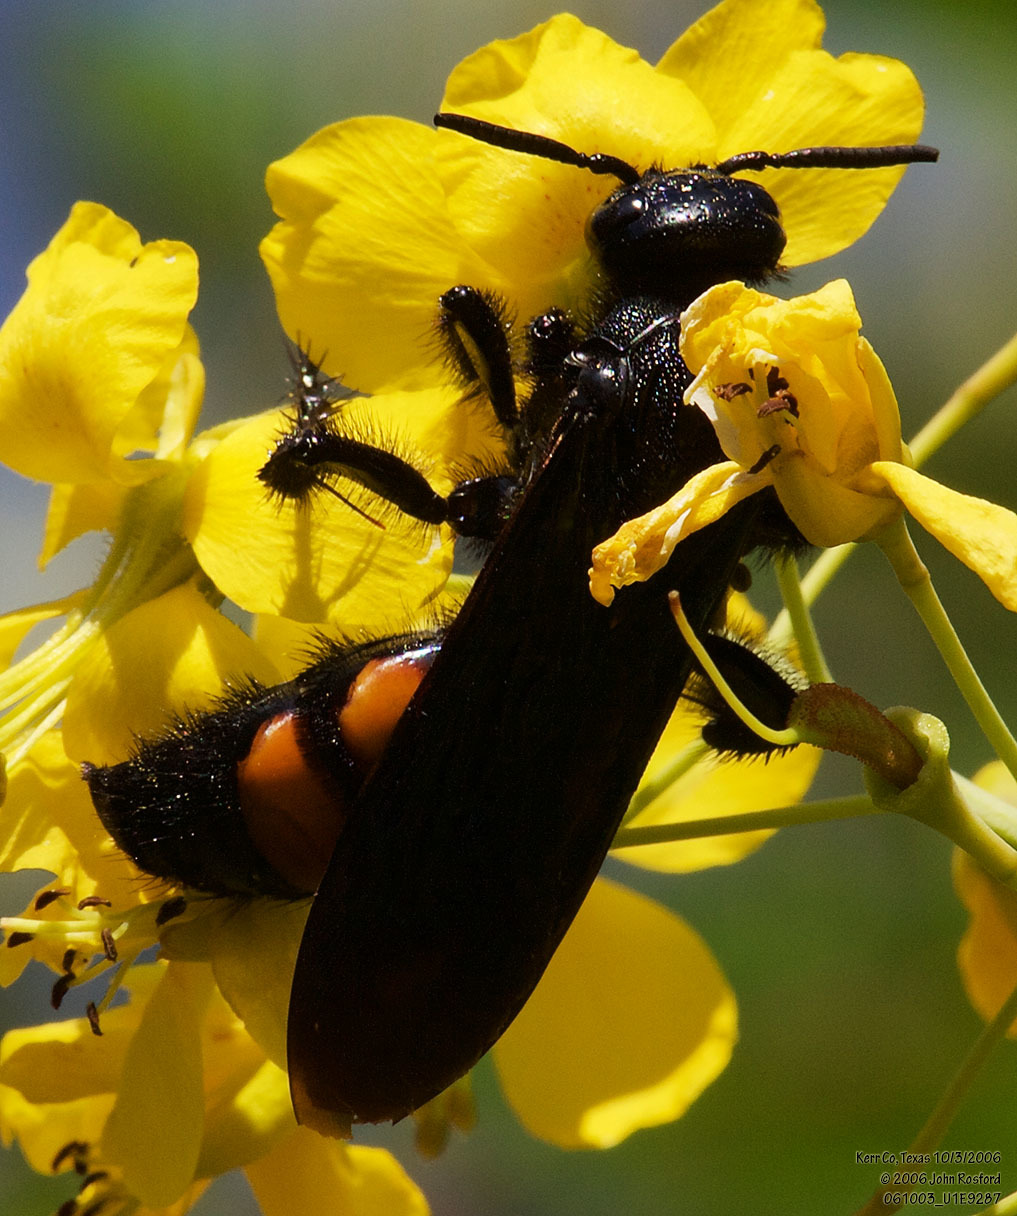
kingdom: Animalia
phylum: Arthropoda
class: Insecta
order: Hymenoptera
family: Scoliidae
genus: Pygodasis
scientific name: Pygodasis ephippium
